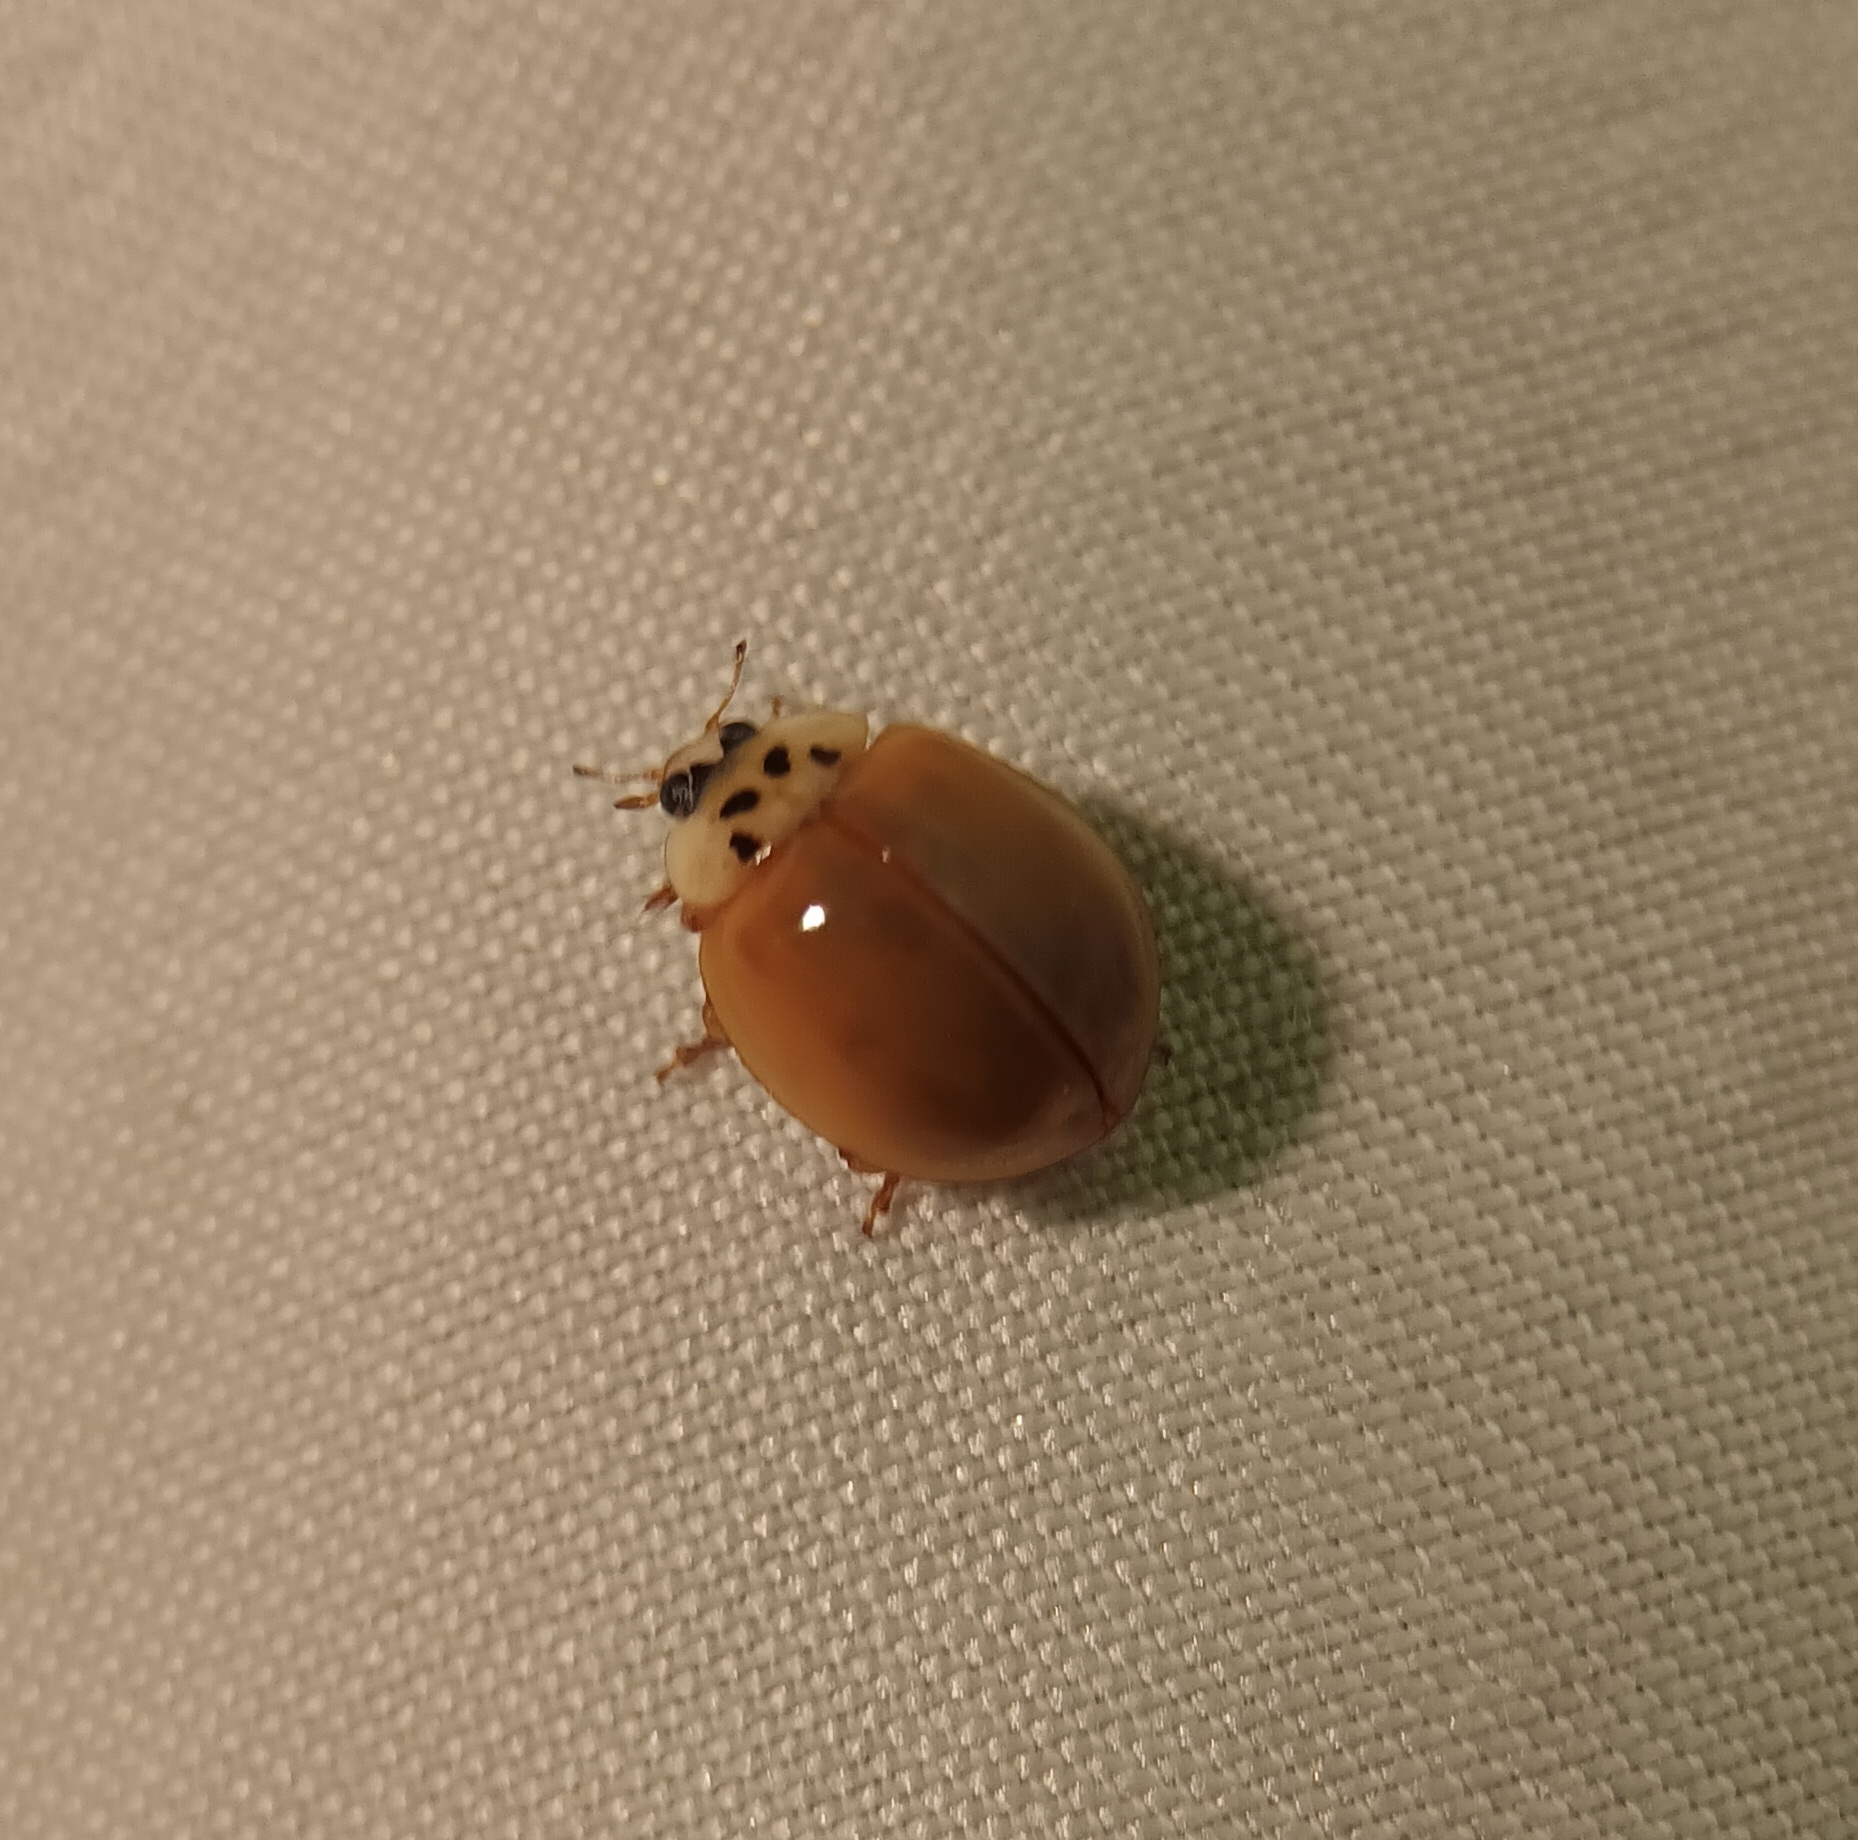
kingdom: Animalia
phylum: Arthropoda
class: Insecta
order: Coleoptera
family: Coccinellidae
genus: Harmonia
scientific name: Harmonia axyridis
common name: Harlequin ladybird
